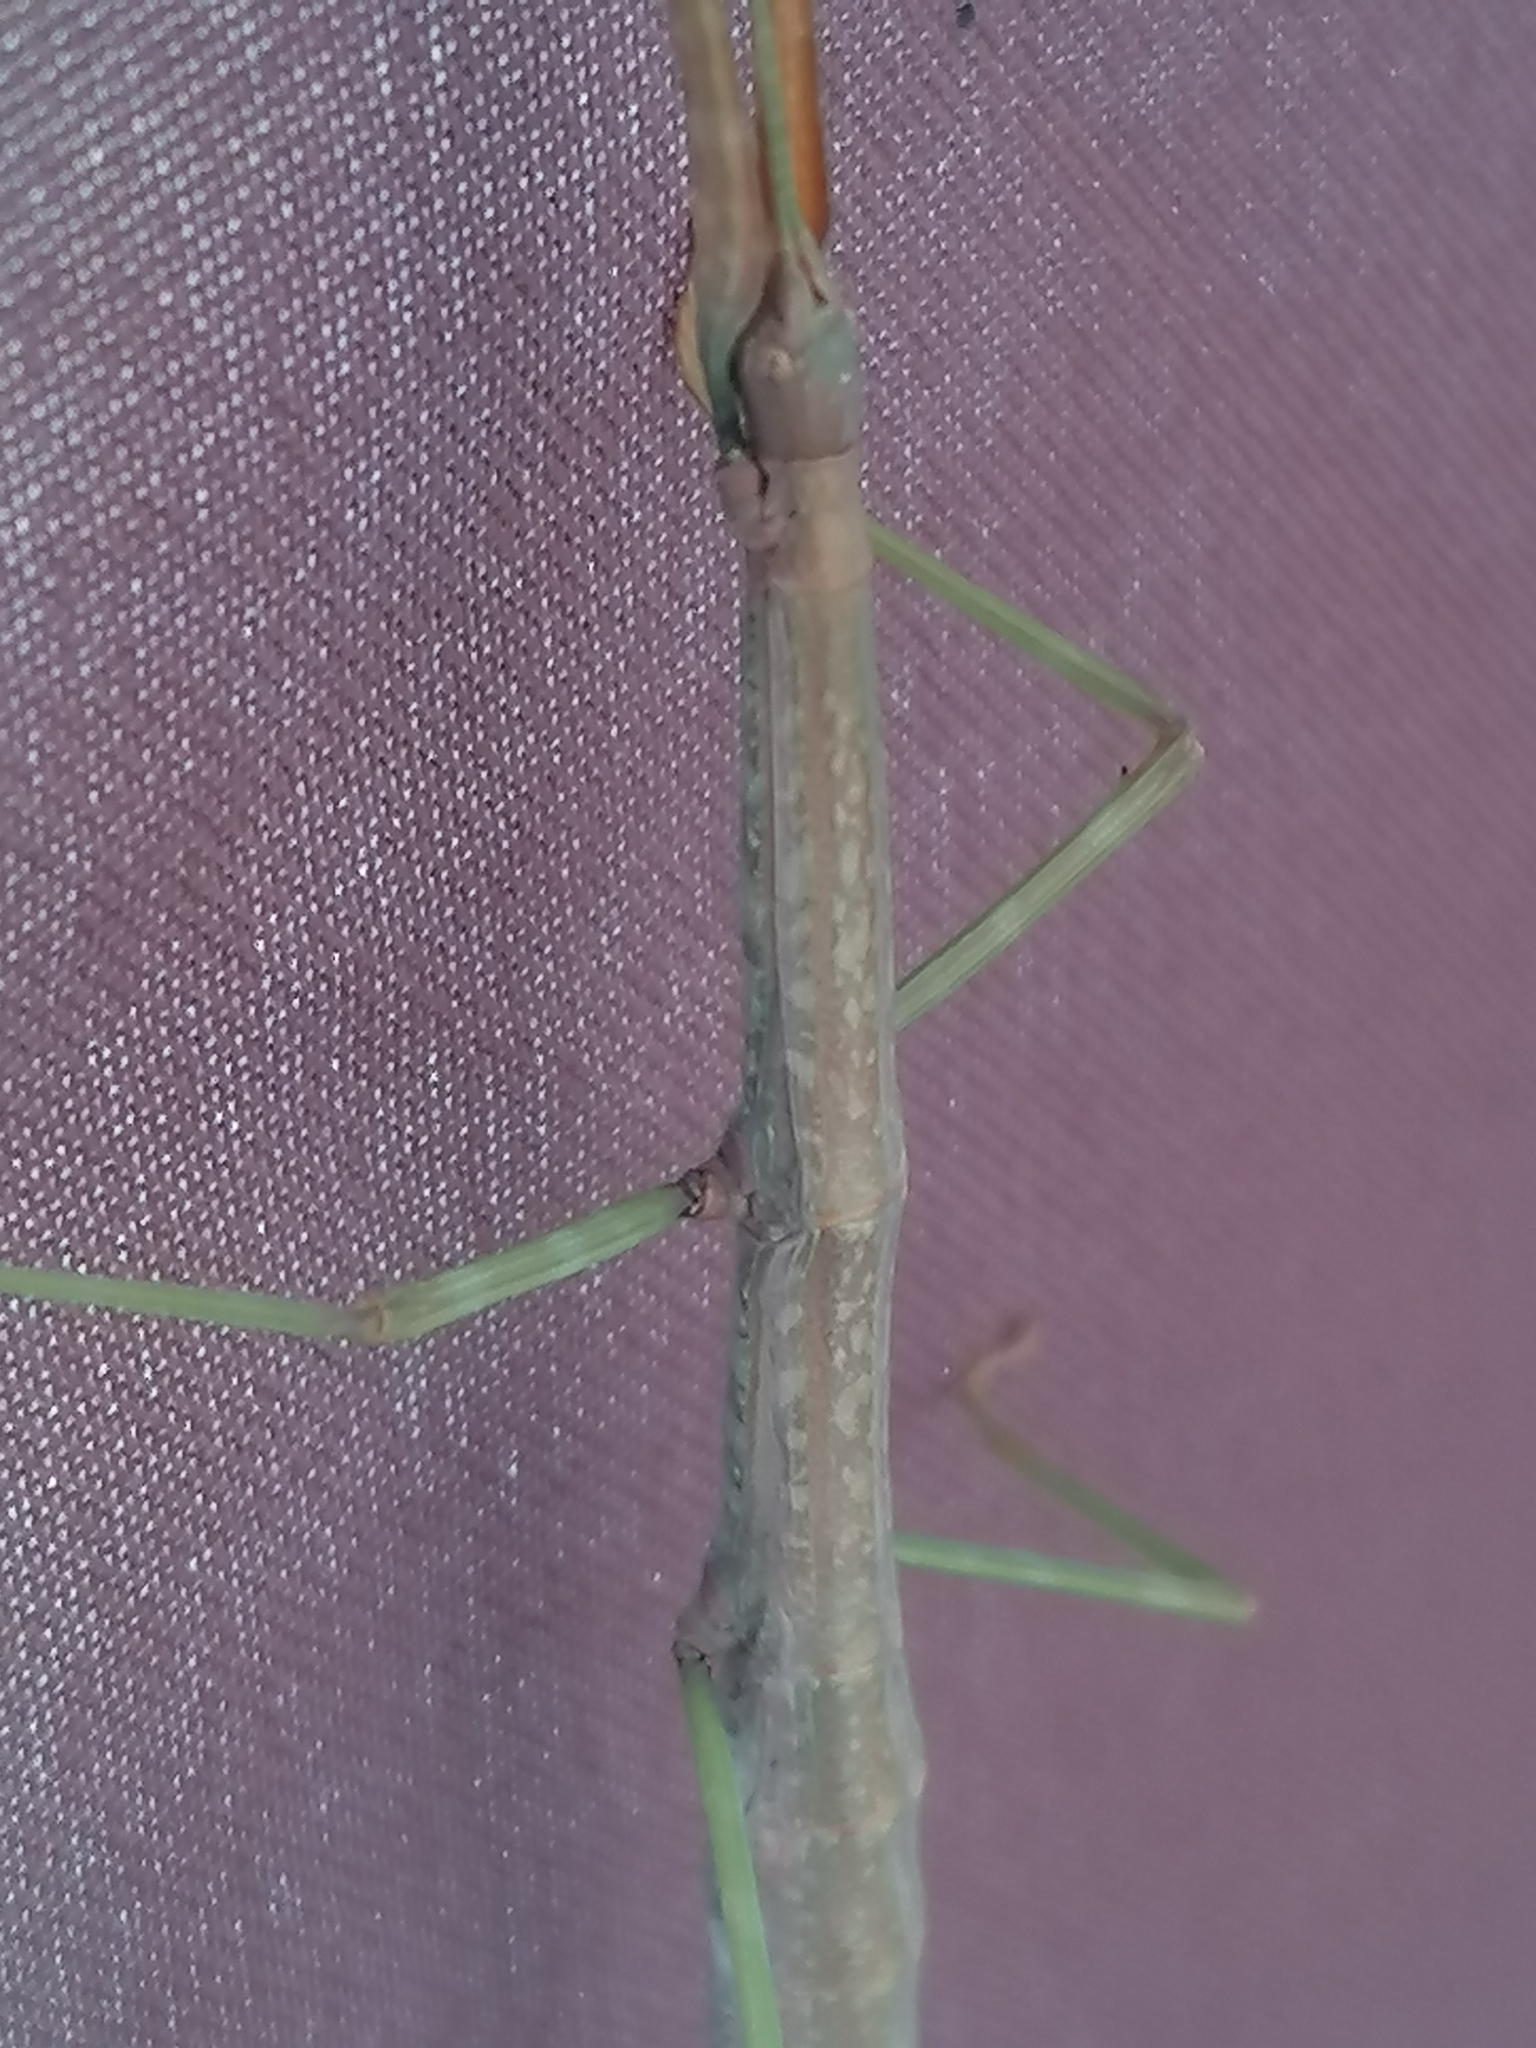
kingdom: Animalia
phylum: Arthropoda
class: Insecta
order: Phasmida
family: Diapheromeridae
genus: Diapheromera
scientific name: Diapheromera femorata
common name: Common american walkingstick
